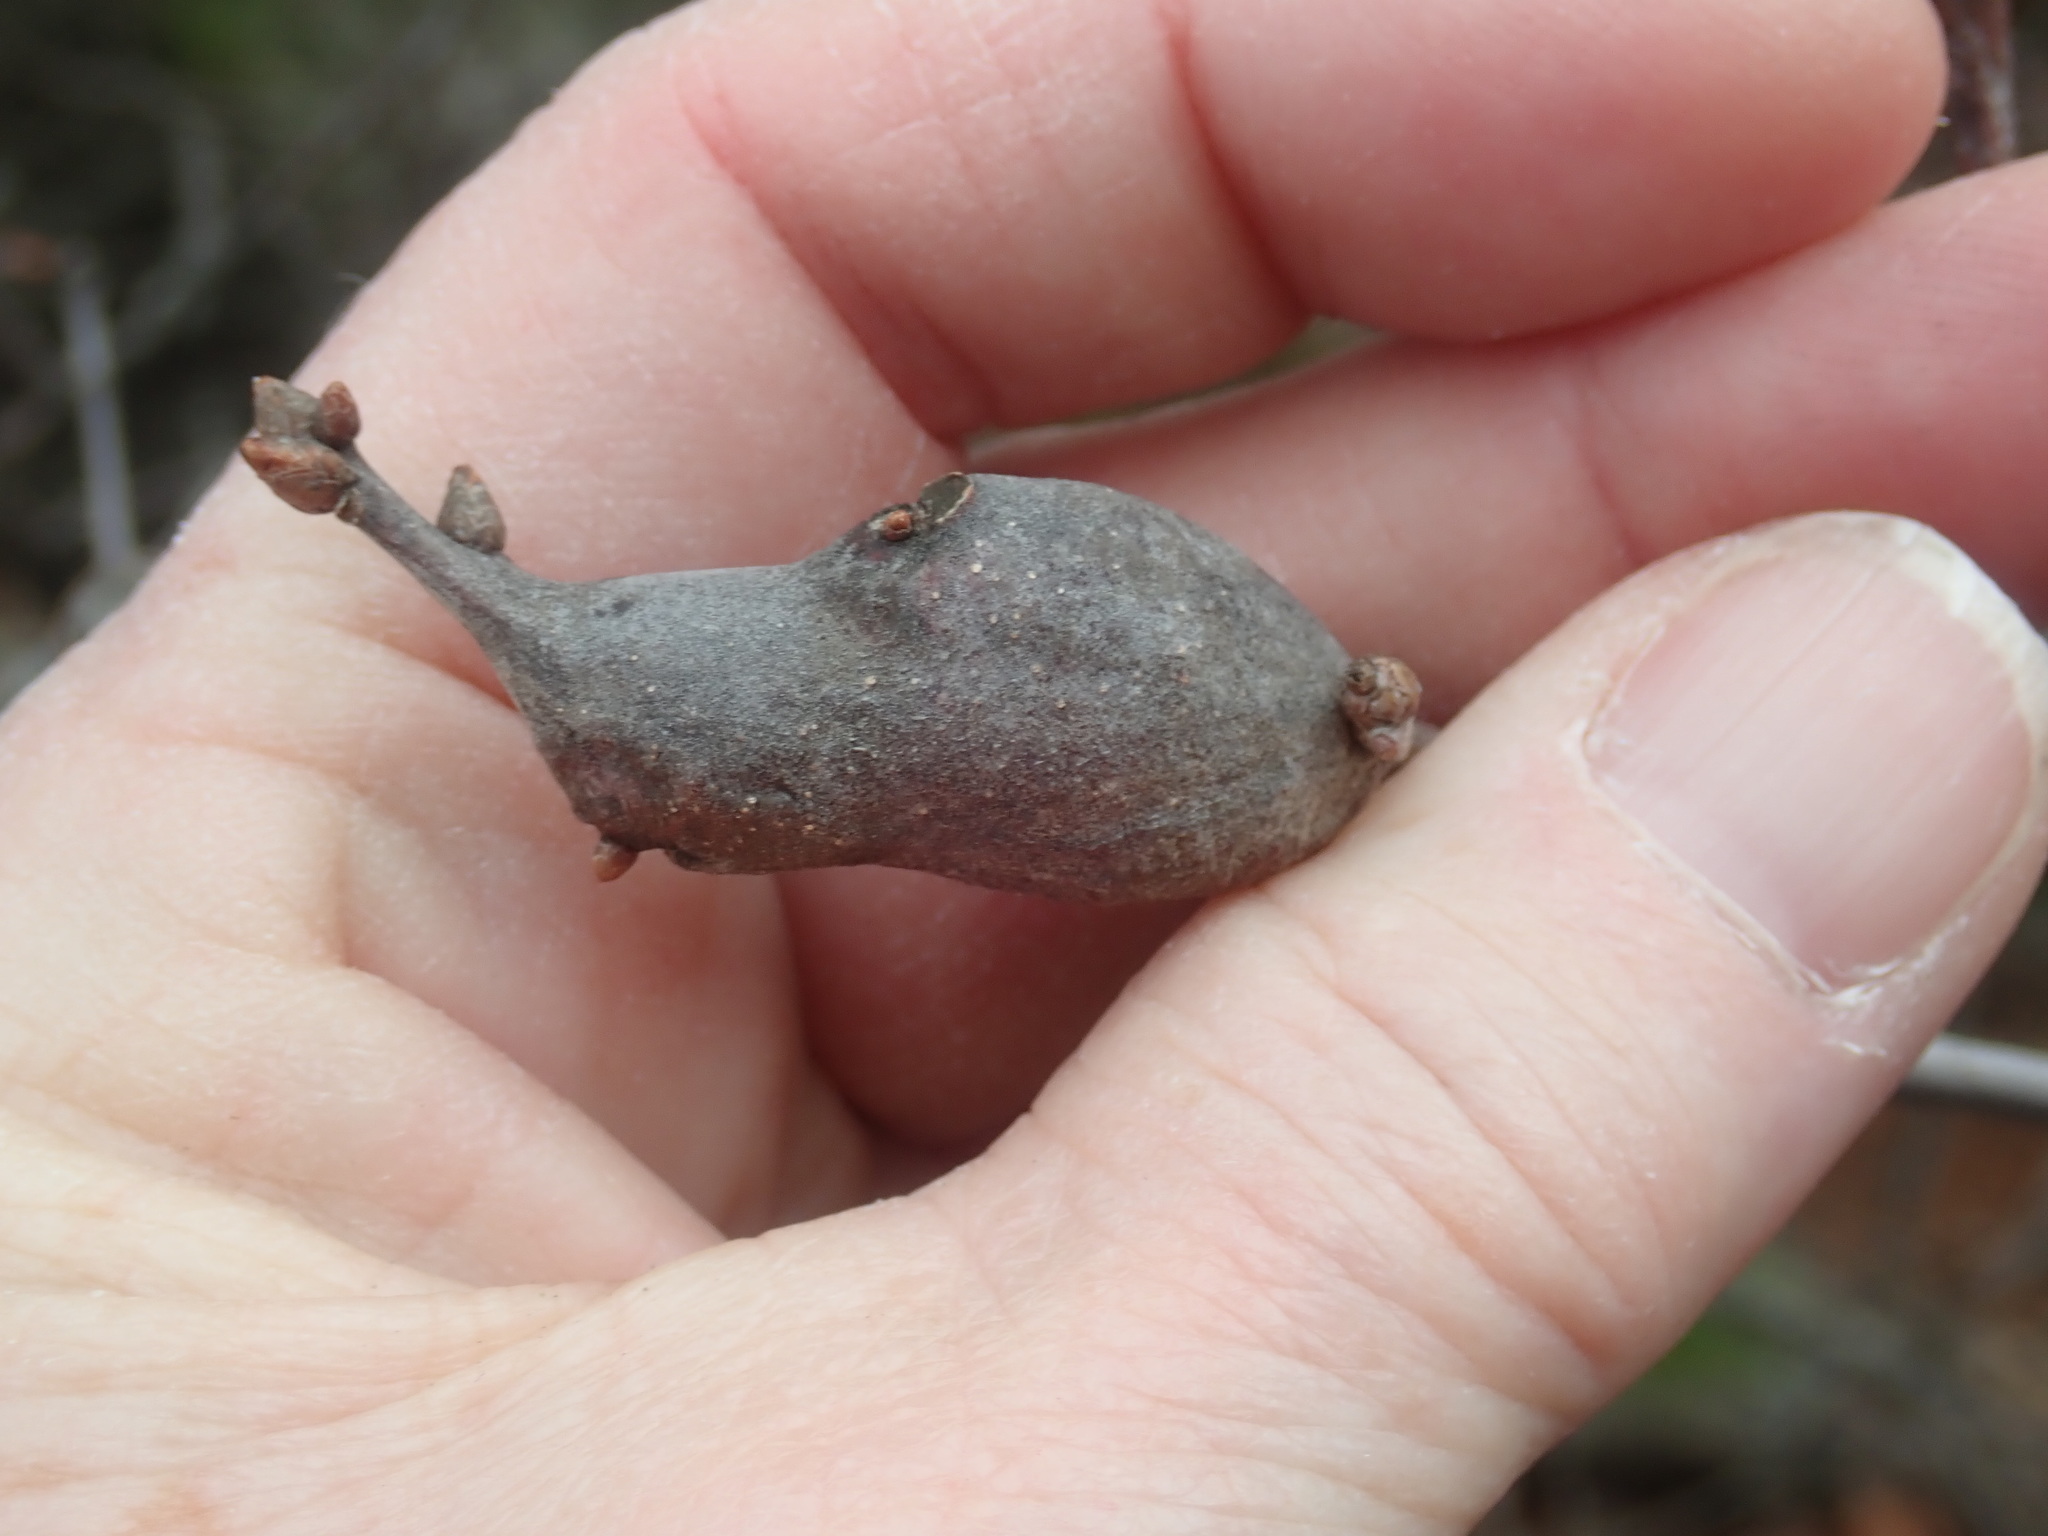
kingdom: Animalia
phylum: Arthropoda
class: Insecta
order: Hymenoptera
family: Cynipidae
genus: Zapatella
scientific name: Zapatella quercusphellos
